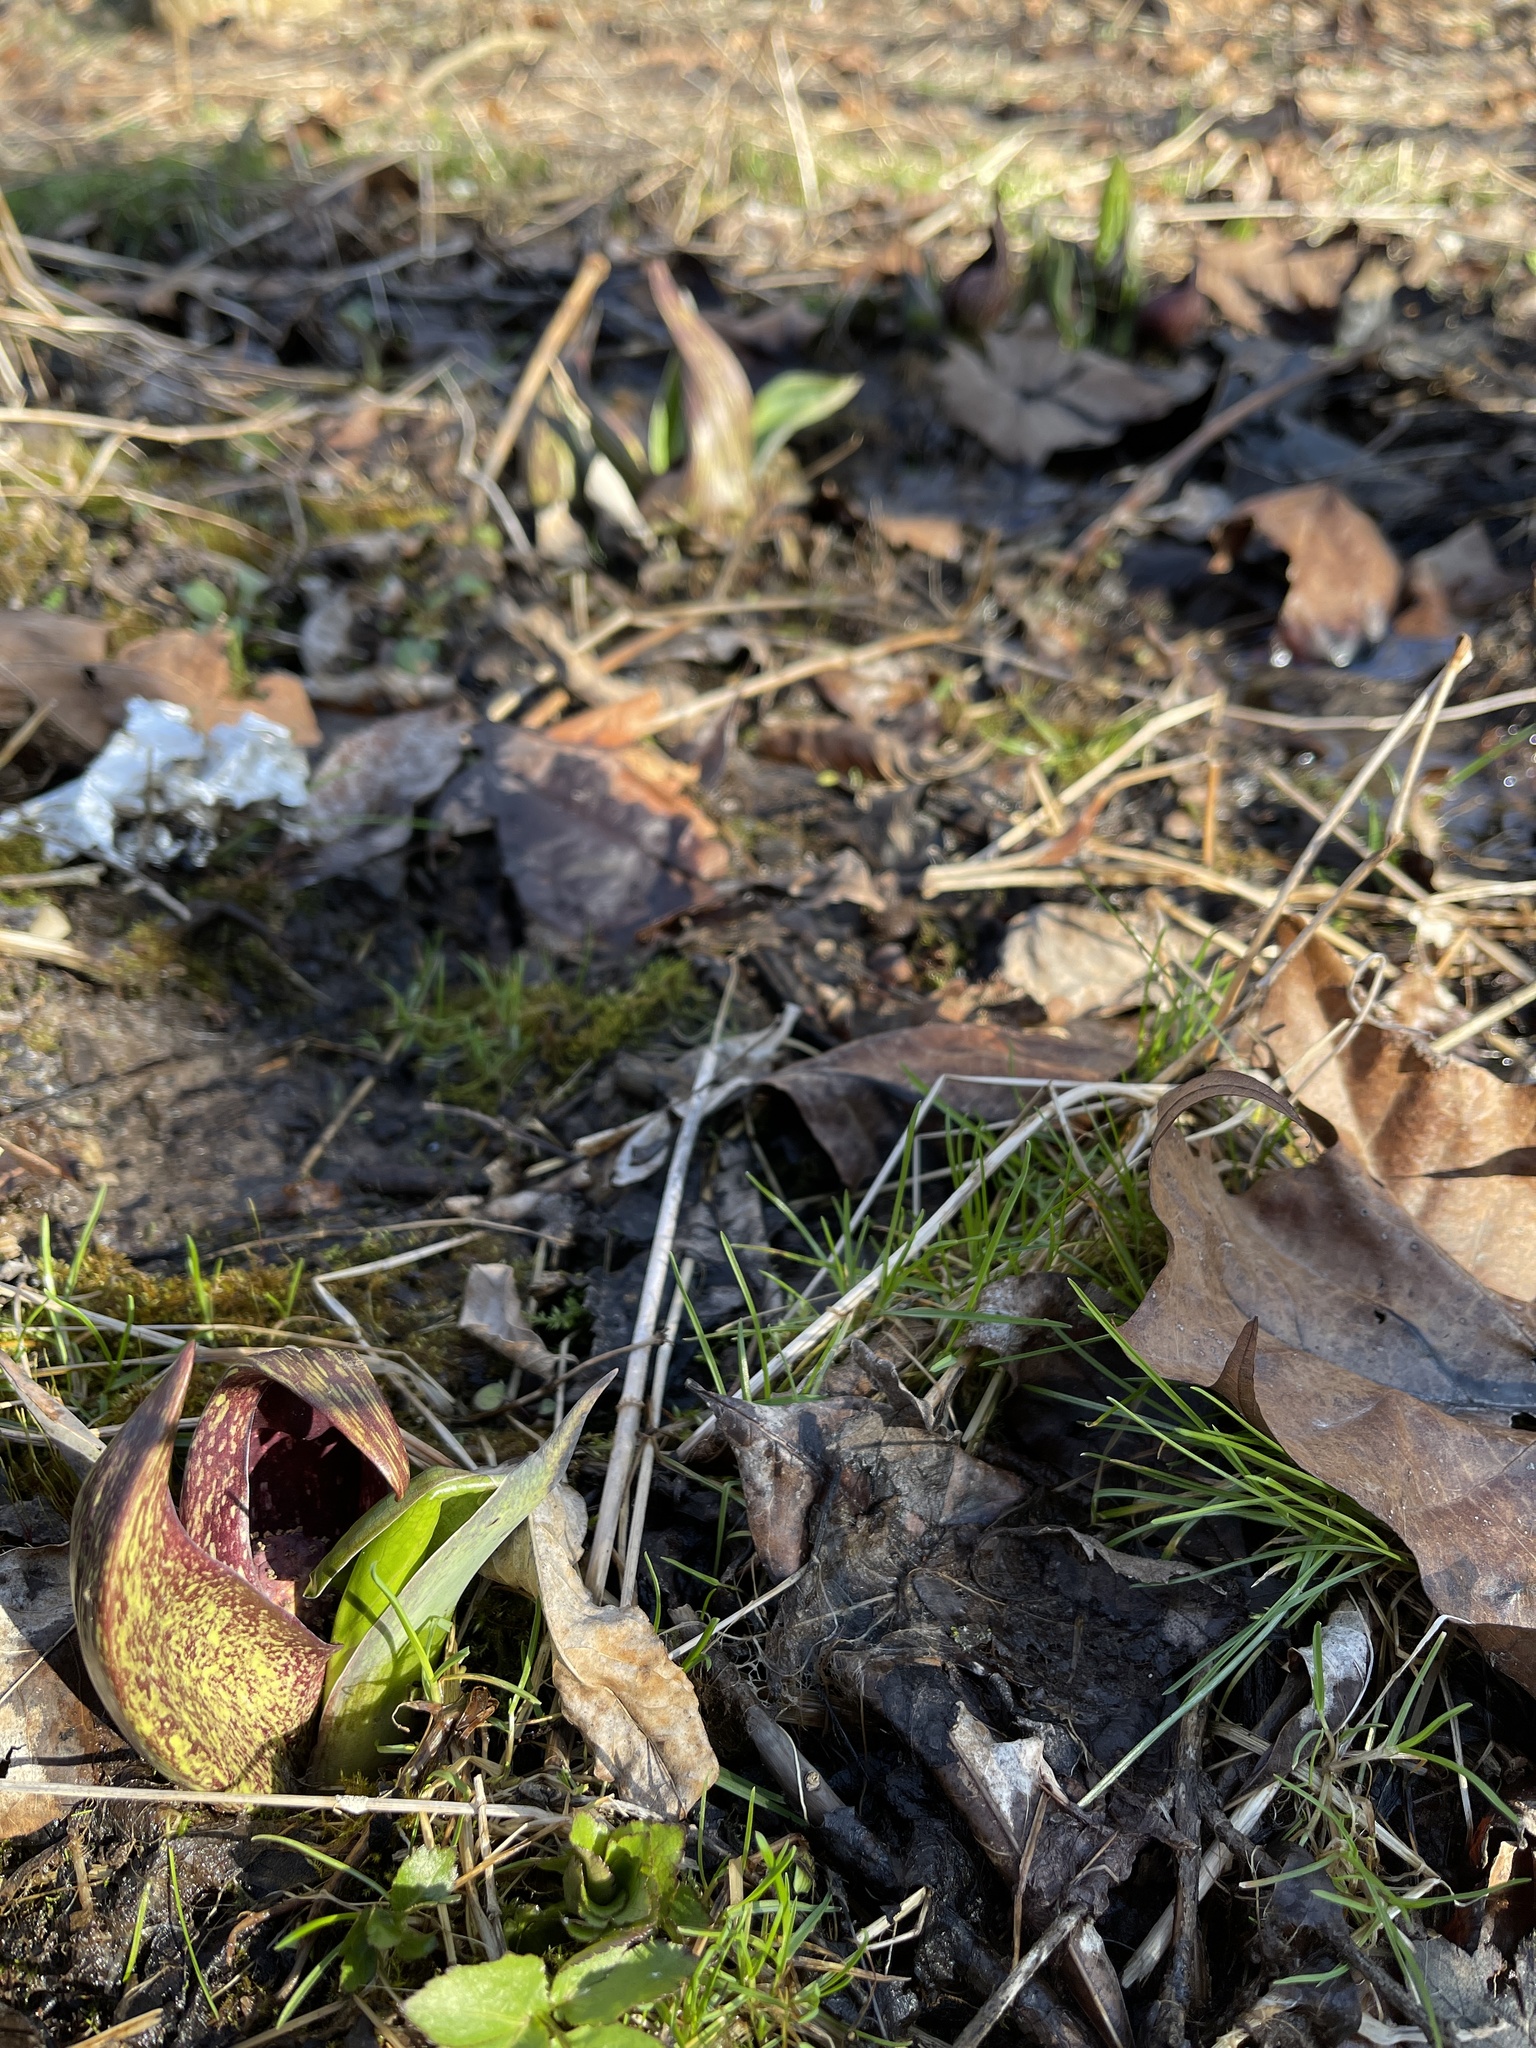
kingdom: Plantae
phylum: Tracheophyta
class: Liliopsida
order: Alismatales
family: Araceae
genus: Symplocarpus
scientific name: Symplocarpus foetidus
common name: Eastern skunk cabbage
